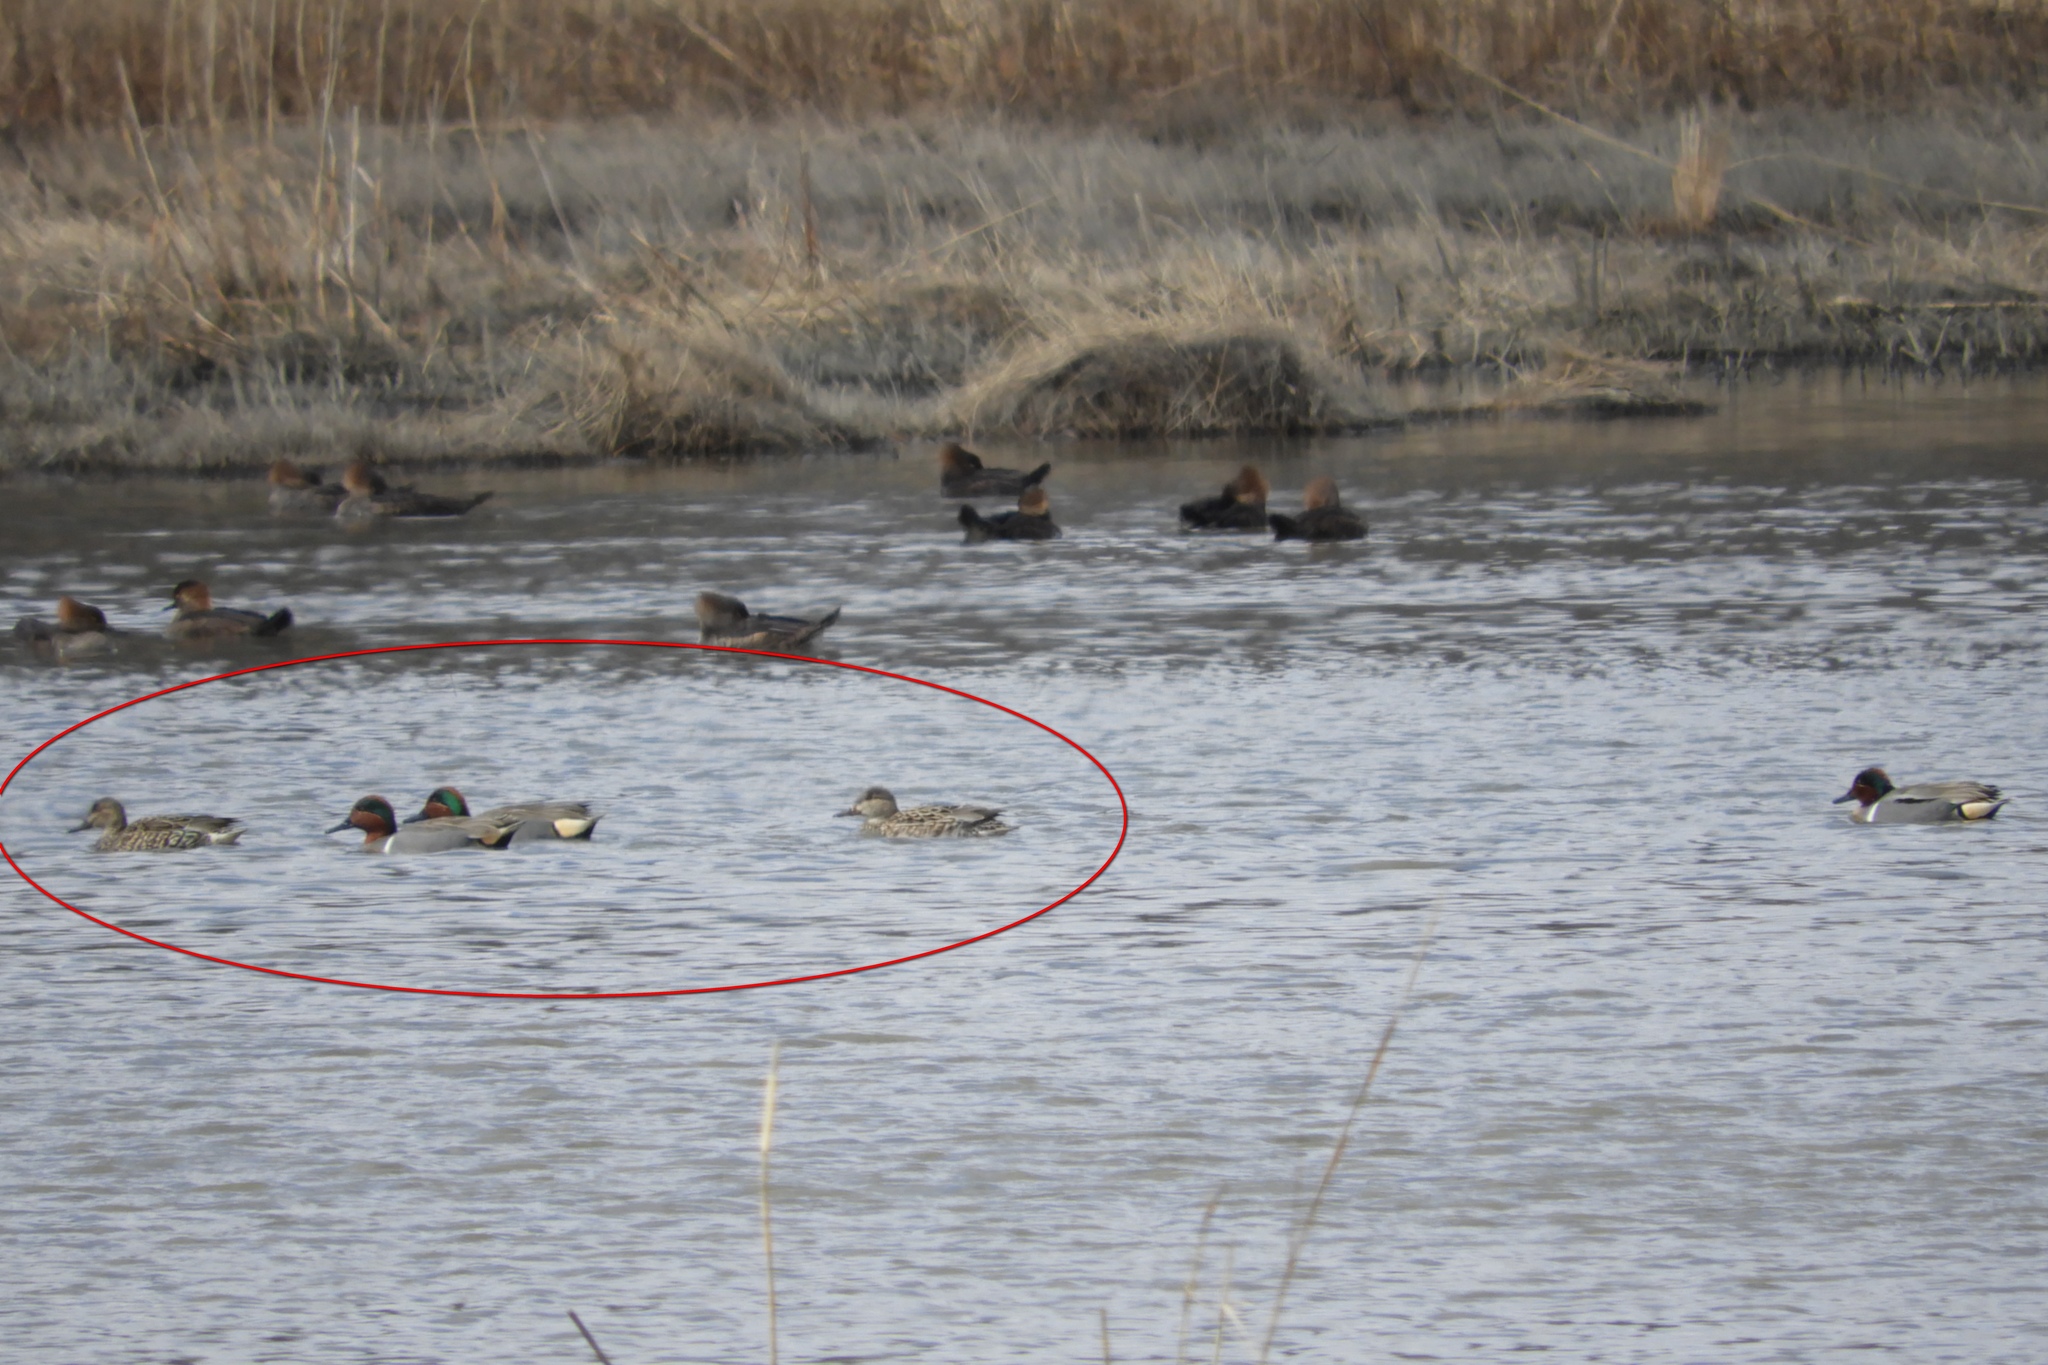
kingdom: Animalia
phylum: Chordata
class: Aves
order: Anseriformes
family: Anatidae
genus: Anas
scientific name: Anas crecca
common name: Eurasian teal
